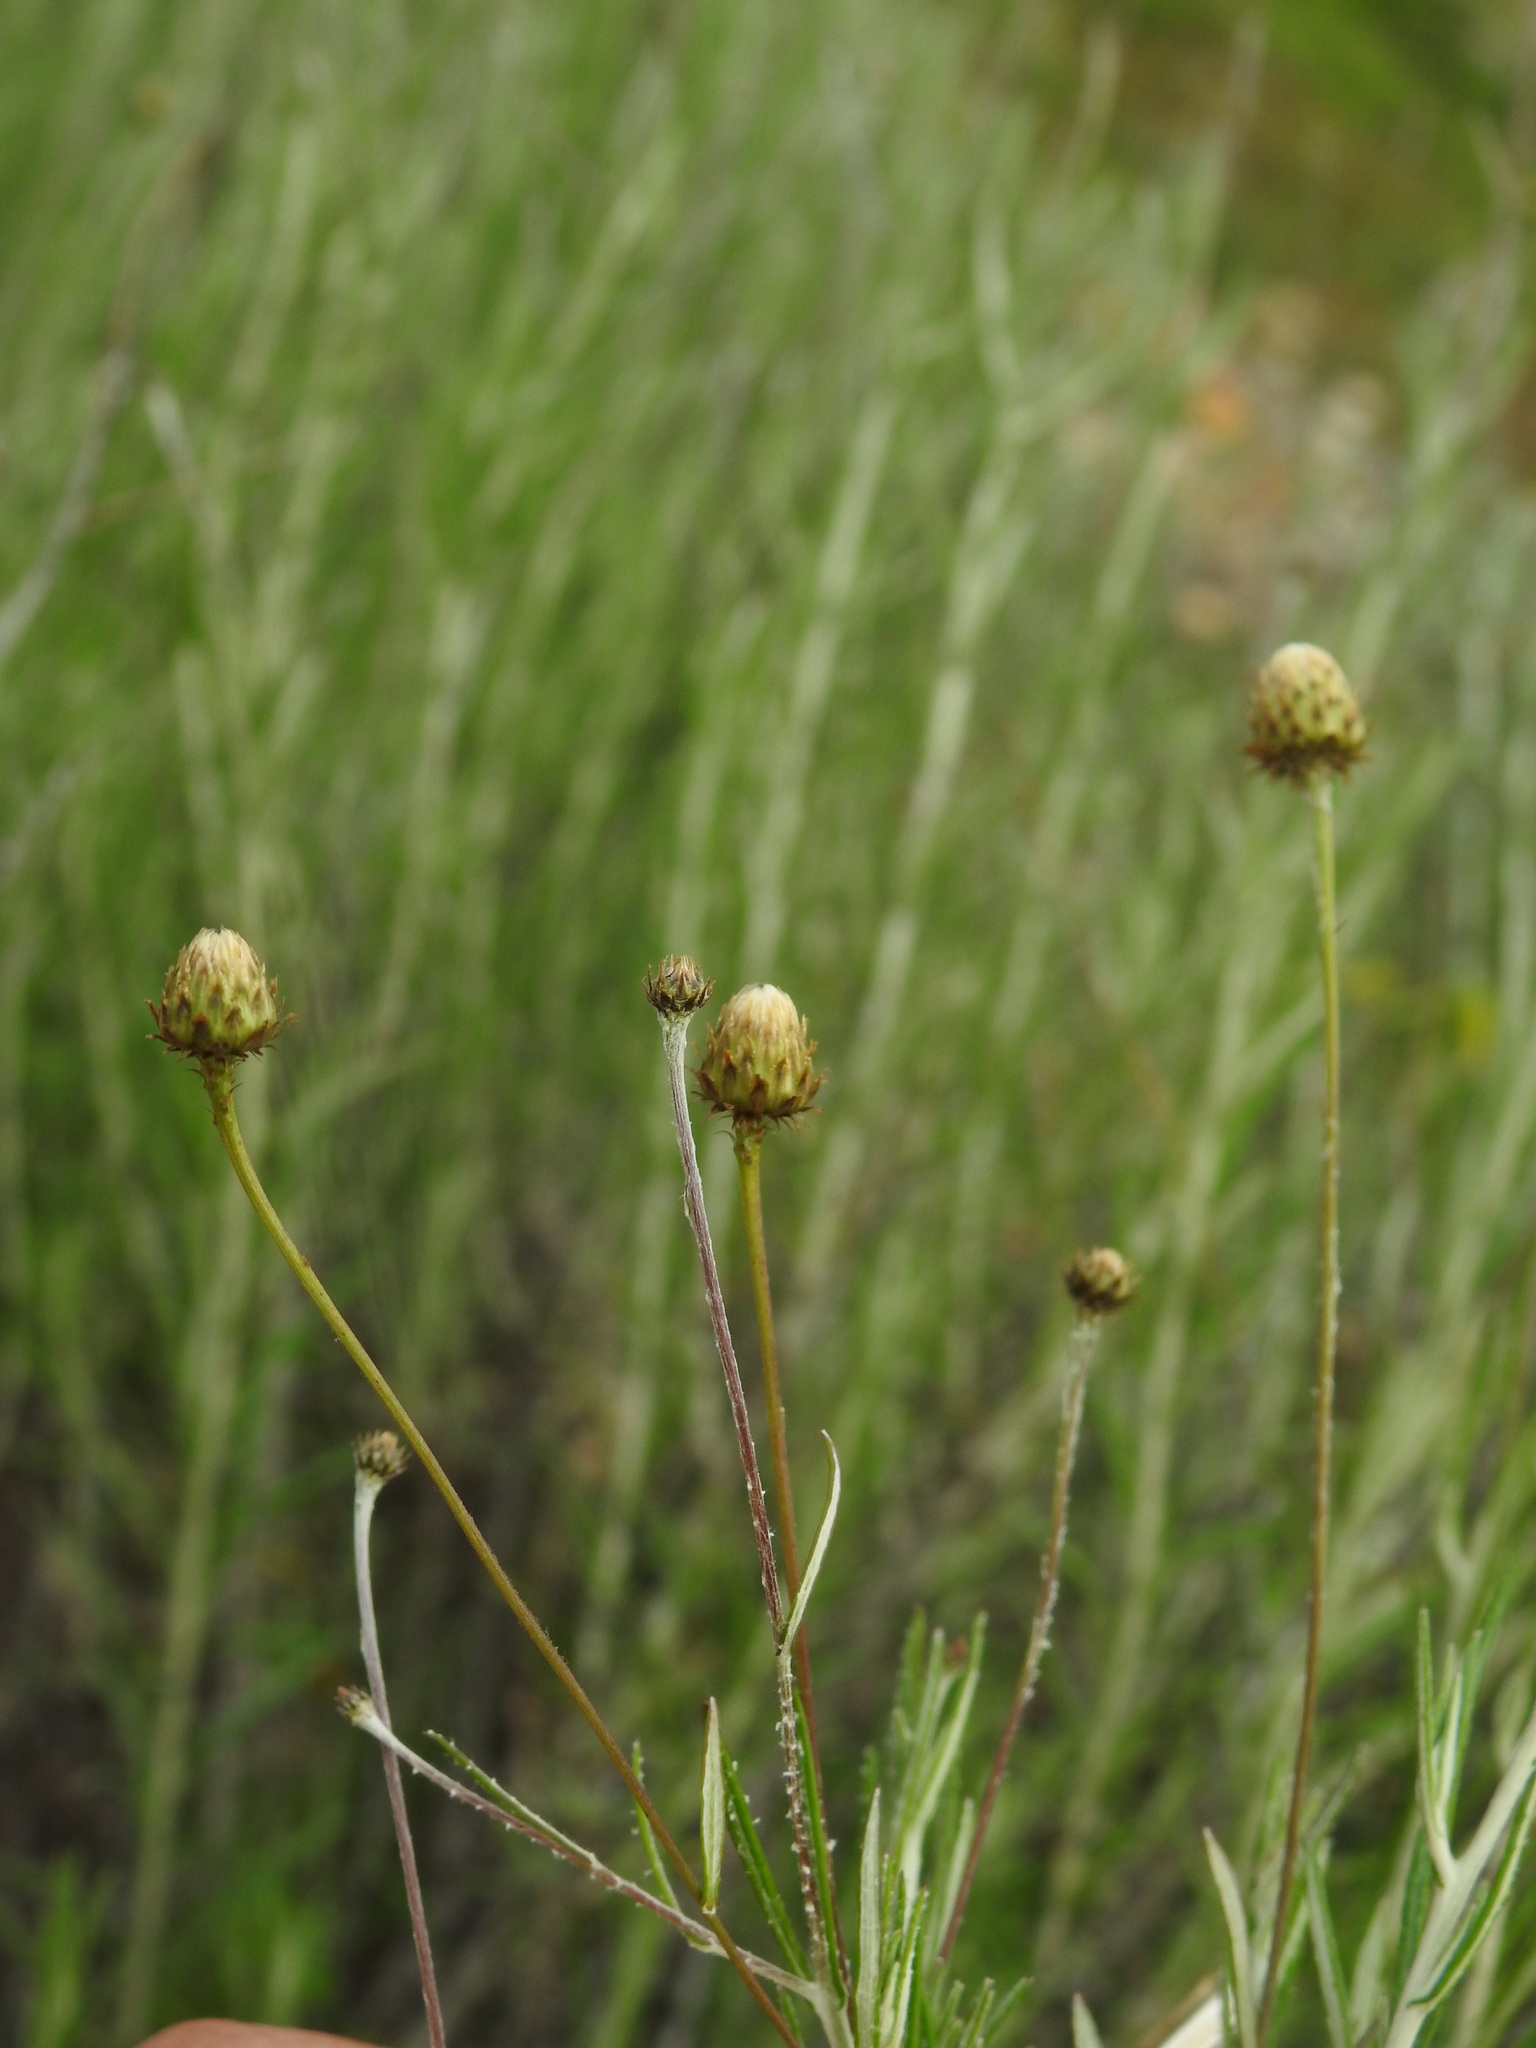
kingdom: Plantae
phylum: Tracheophyta
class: Magnoliopsida
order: Asterales
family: Asteraceae
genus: Phagnalon
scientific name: Phagnalon saxatile
